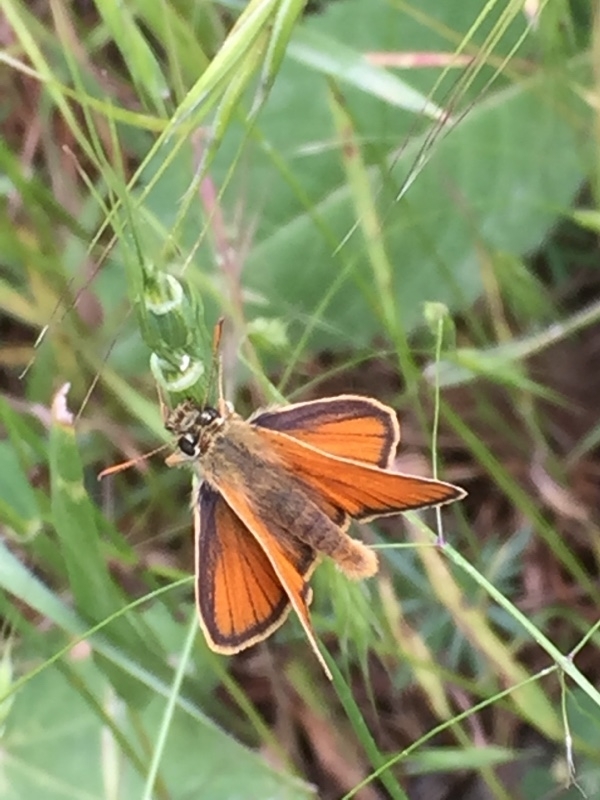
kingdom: Animalia
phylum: Arthropoda
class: Insecta
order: Lepidoptera
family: Hesperiidae
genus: Thymelicus
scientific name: Thymelicus sylvestris
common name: Small skipper
